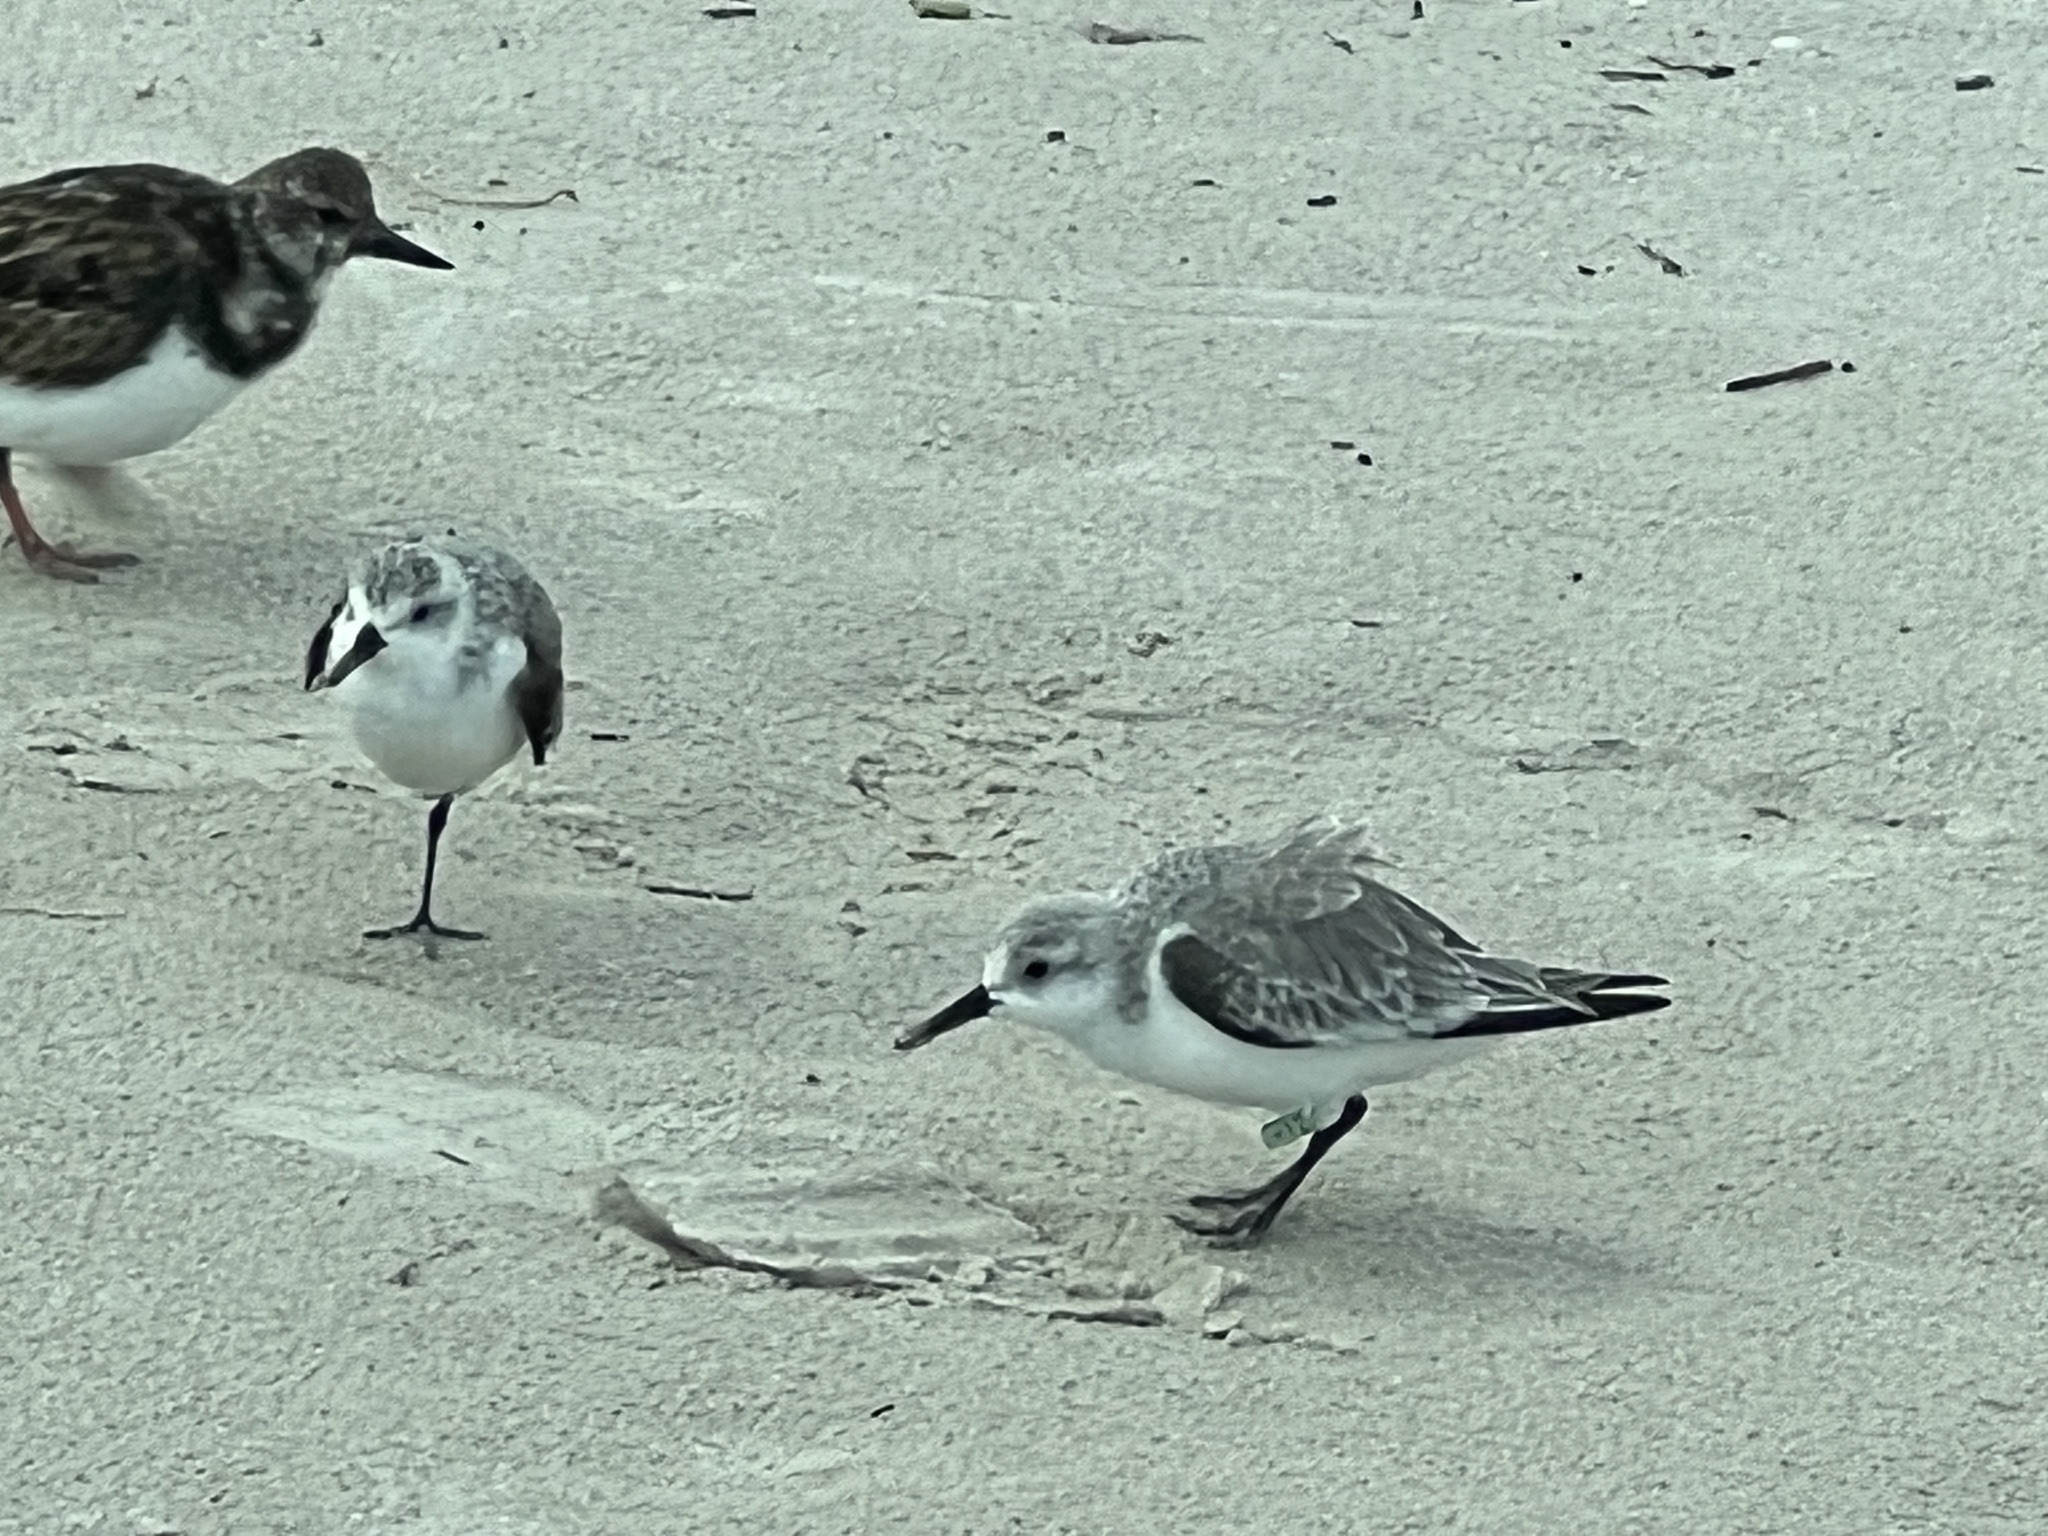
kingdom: Animalia
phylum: Chordata
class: Aves
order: Charadriiformes
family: Scolopacidae
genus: Calidris
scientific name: Calidris alba
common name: Sanderling
